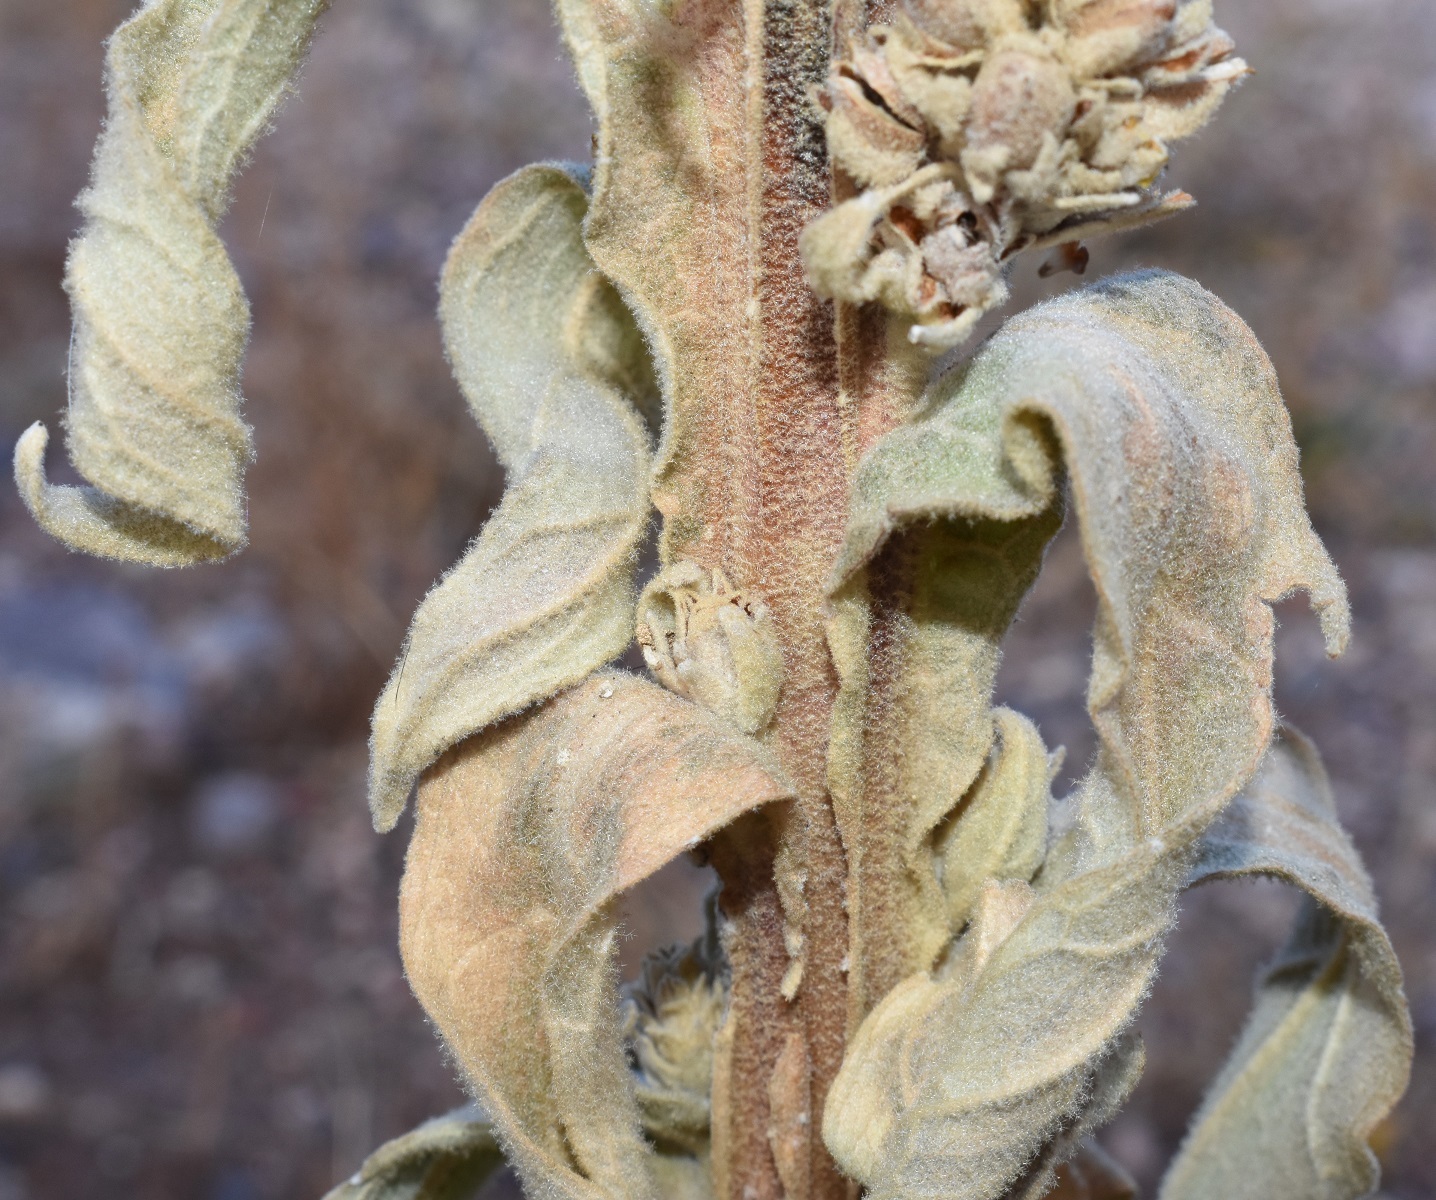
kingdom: Plantae
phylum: Tracheophyta
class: Magnoliopsida
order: Lamiales
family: Scrophulariaceae
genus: Verbascum
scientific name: Verbascum thapsus
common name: Common mullein
